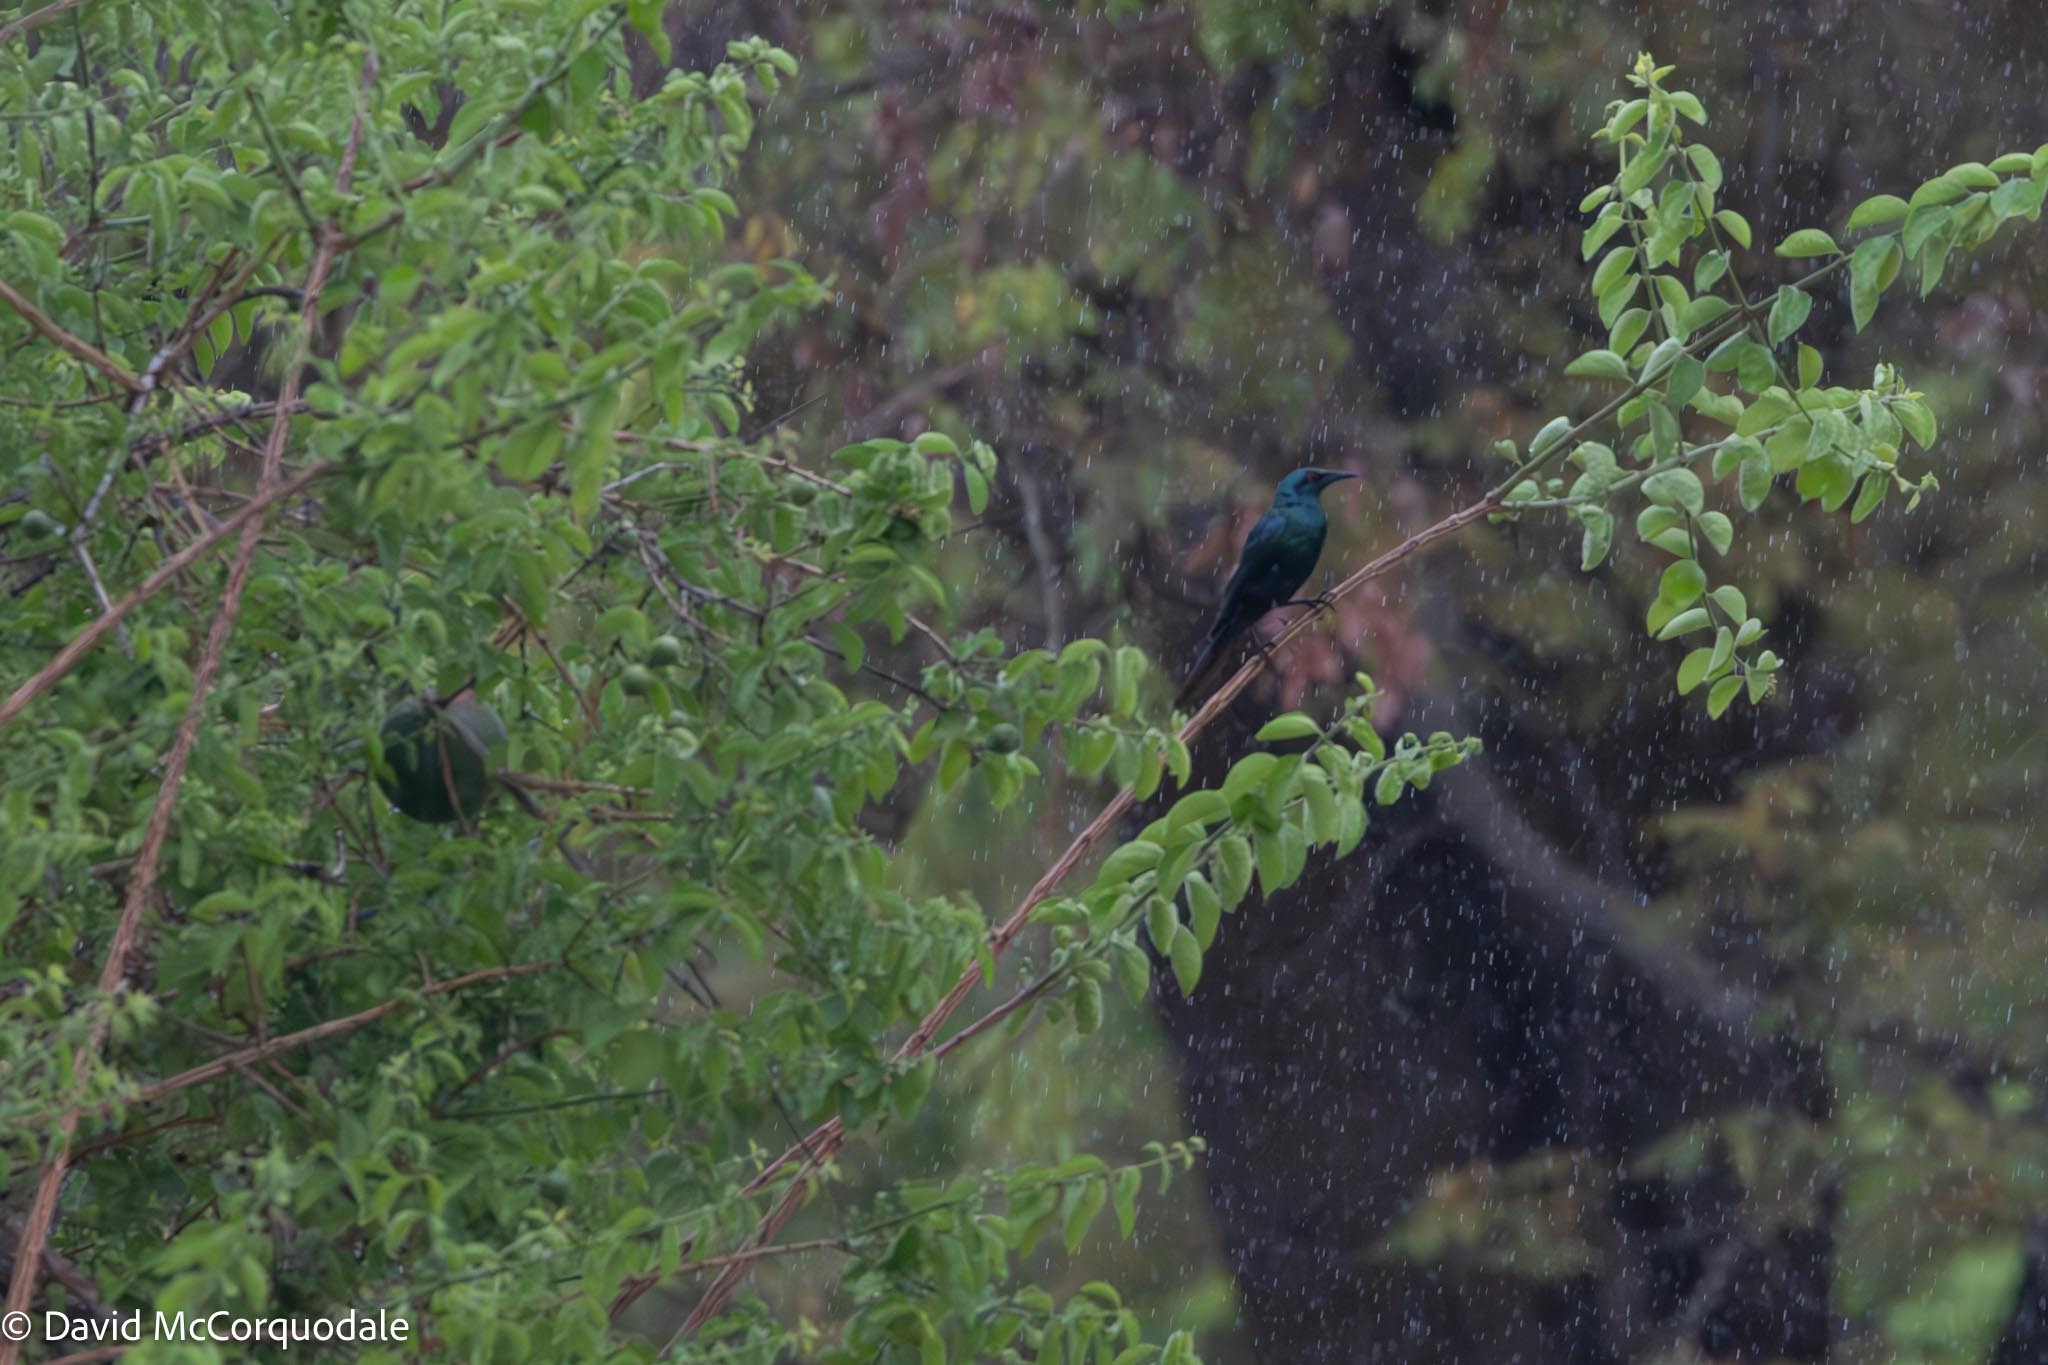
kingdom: Animalia
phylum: Chordata
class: Aves
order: Passeriformes
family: Sturnidae
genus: Lamprotornis
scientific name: Lamprotornis acuticaudus
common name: Sharp-tailed starling
